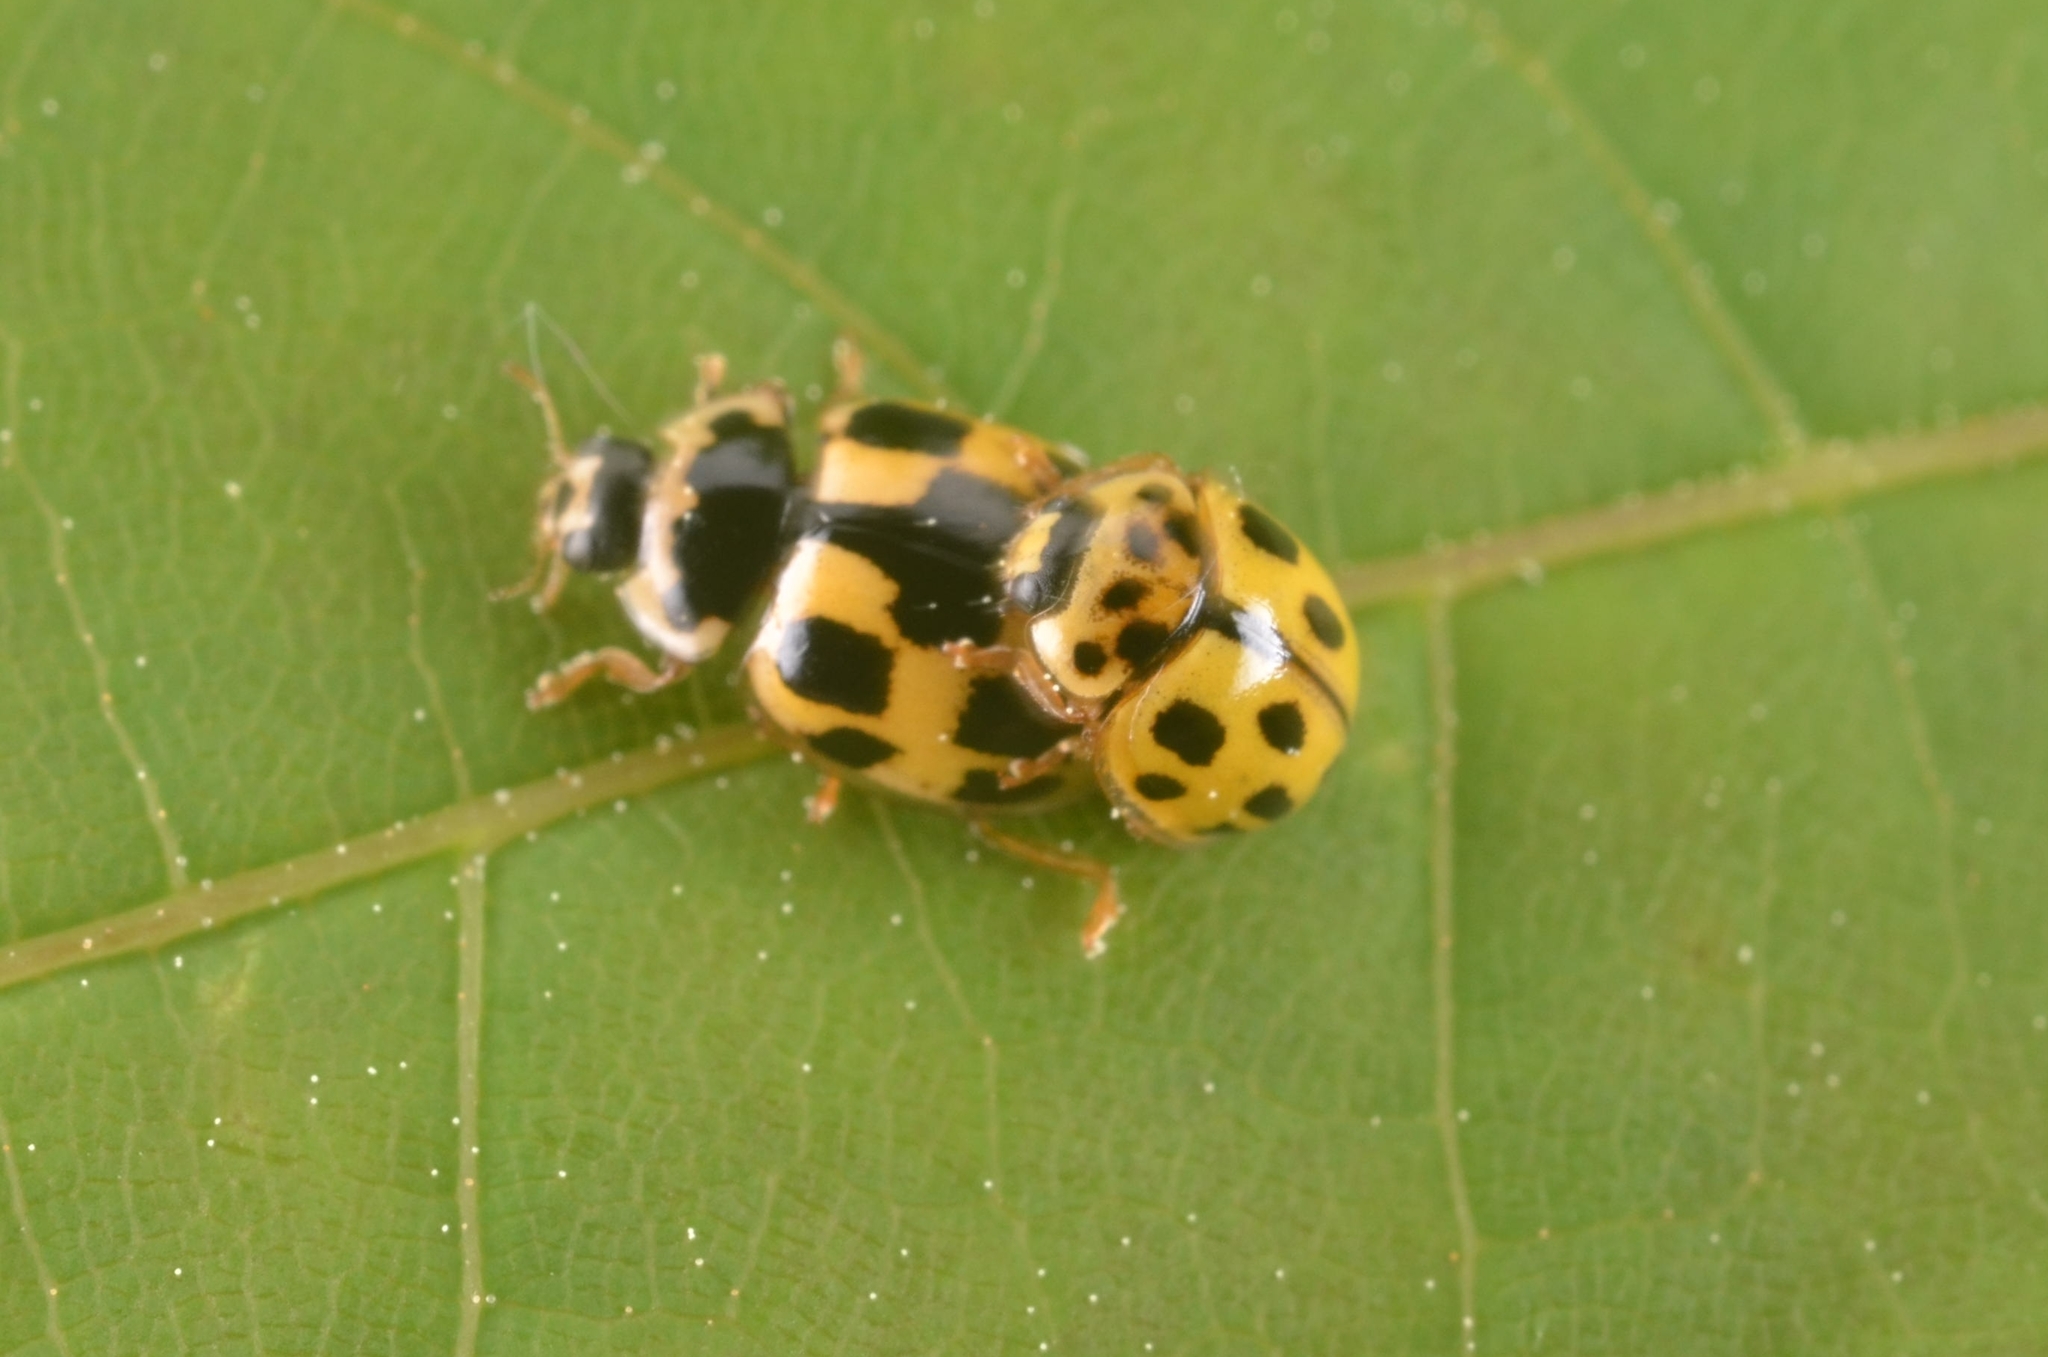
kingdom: Animalia
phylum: Arthropoda
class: Insecta
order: Coleoptera
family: Coccinellidae
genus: Propylaea
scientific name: Propylaea quatuordecimpunctata
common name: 14-spotted ladybird beetle
